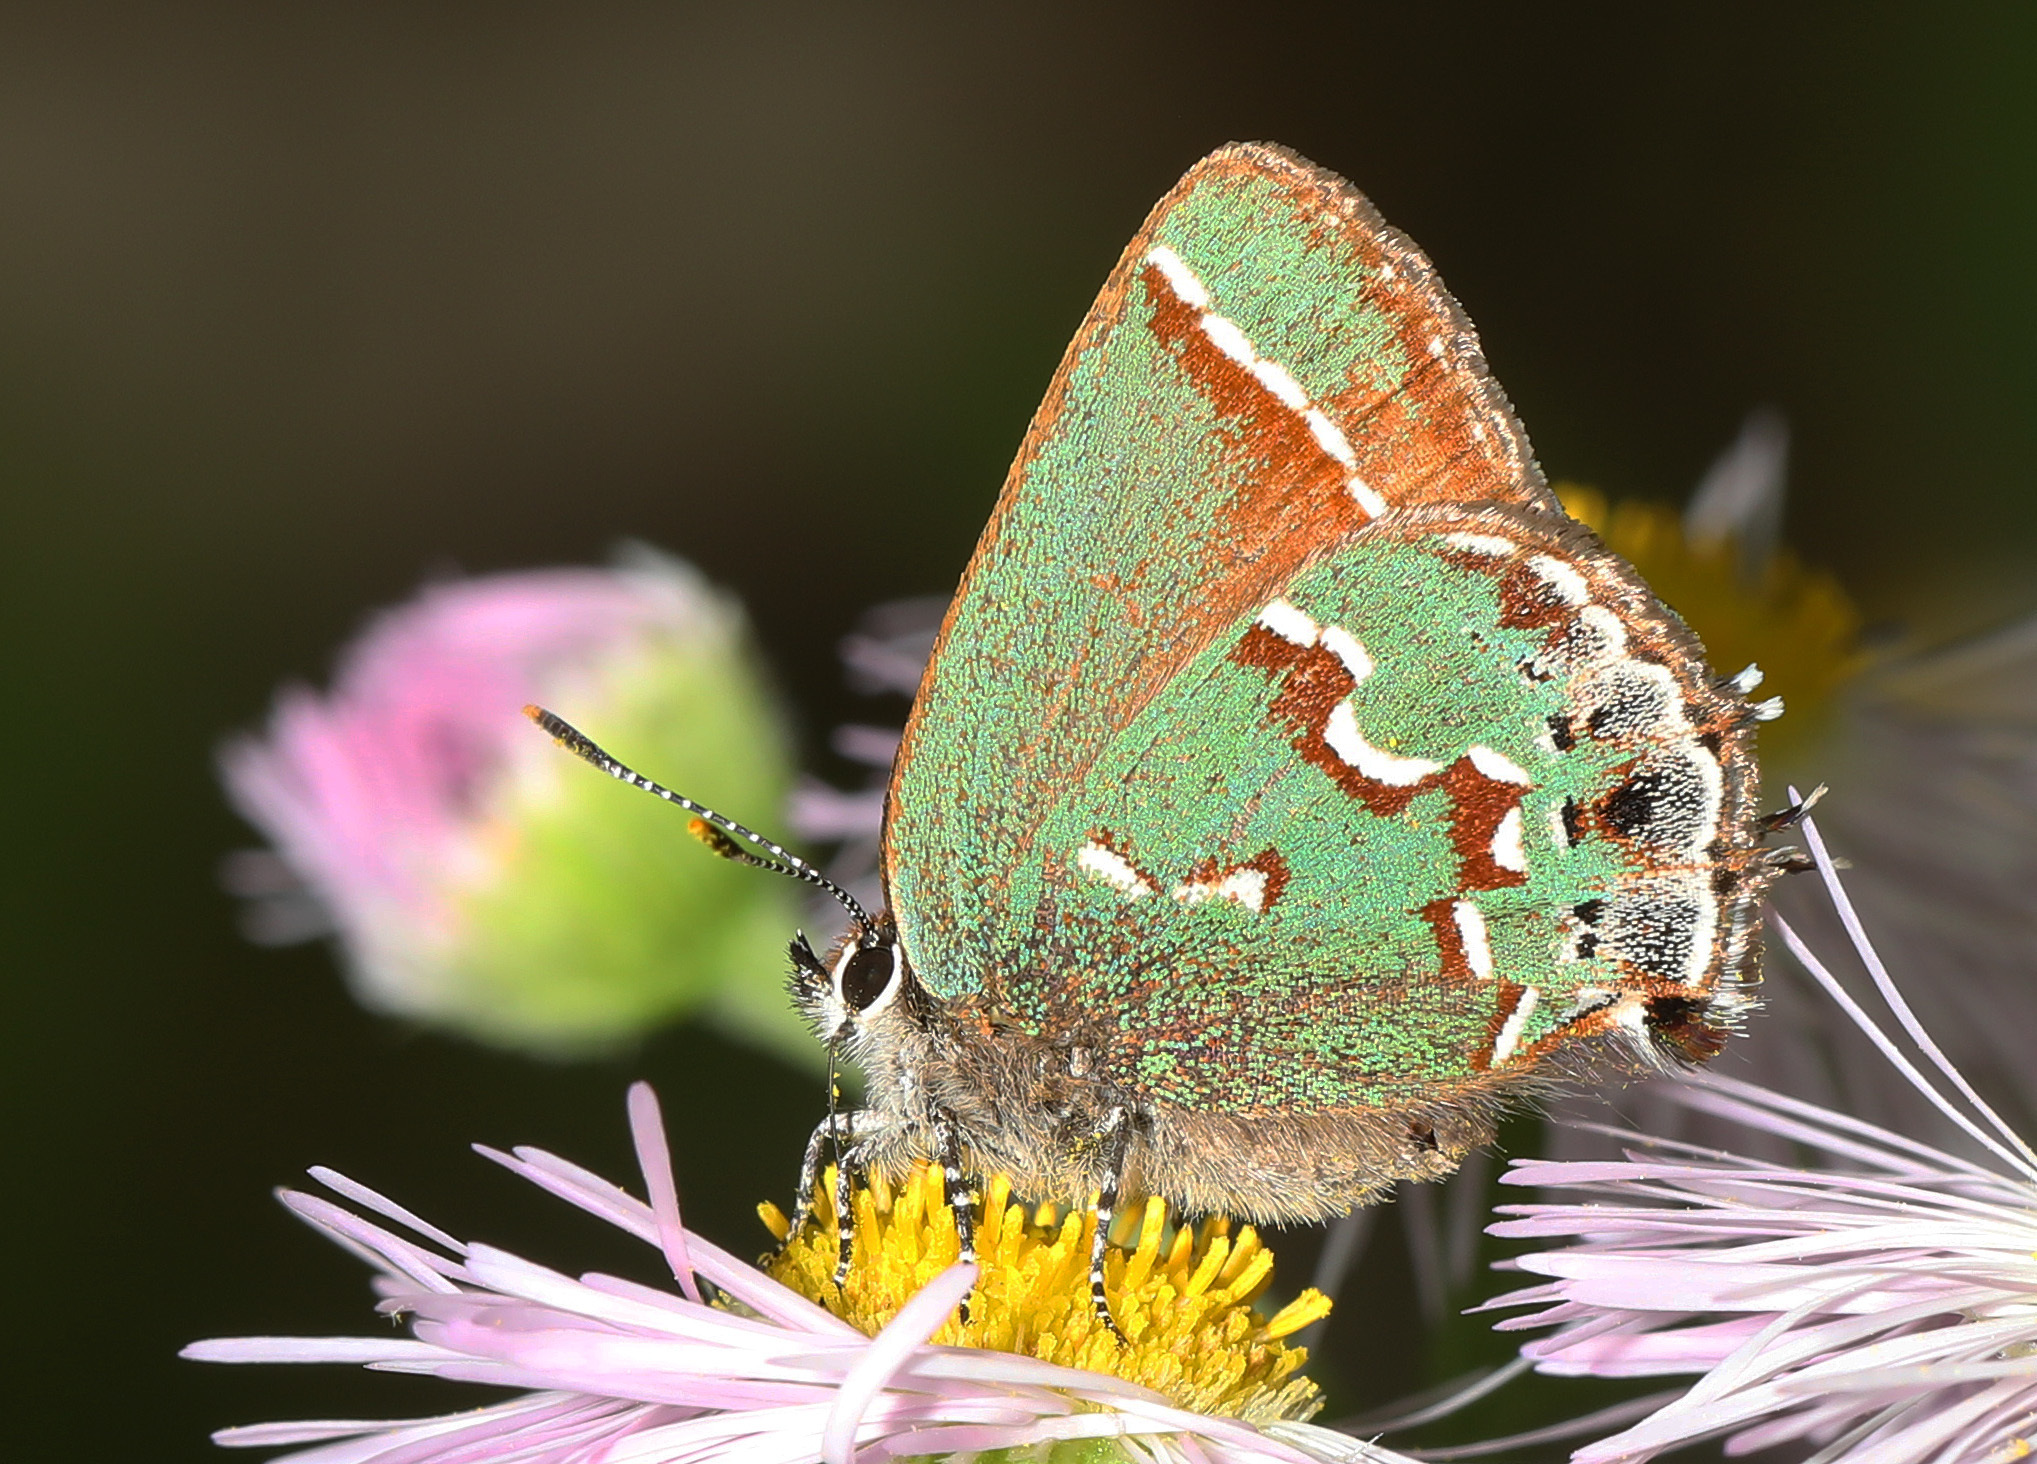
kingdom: Animalia
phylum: Arthropoda
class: Insecta
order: Lepidoptera
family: Lycaenidae
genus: Mitoura
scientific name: Mitoura gryneus
